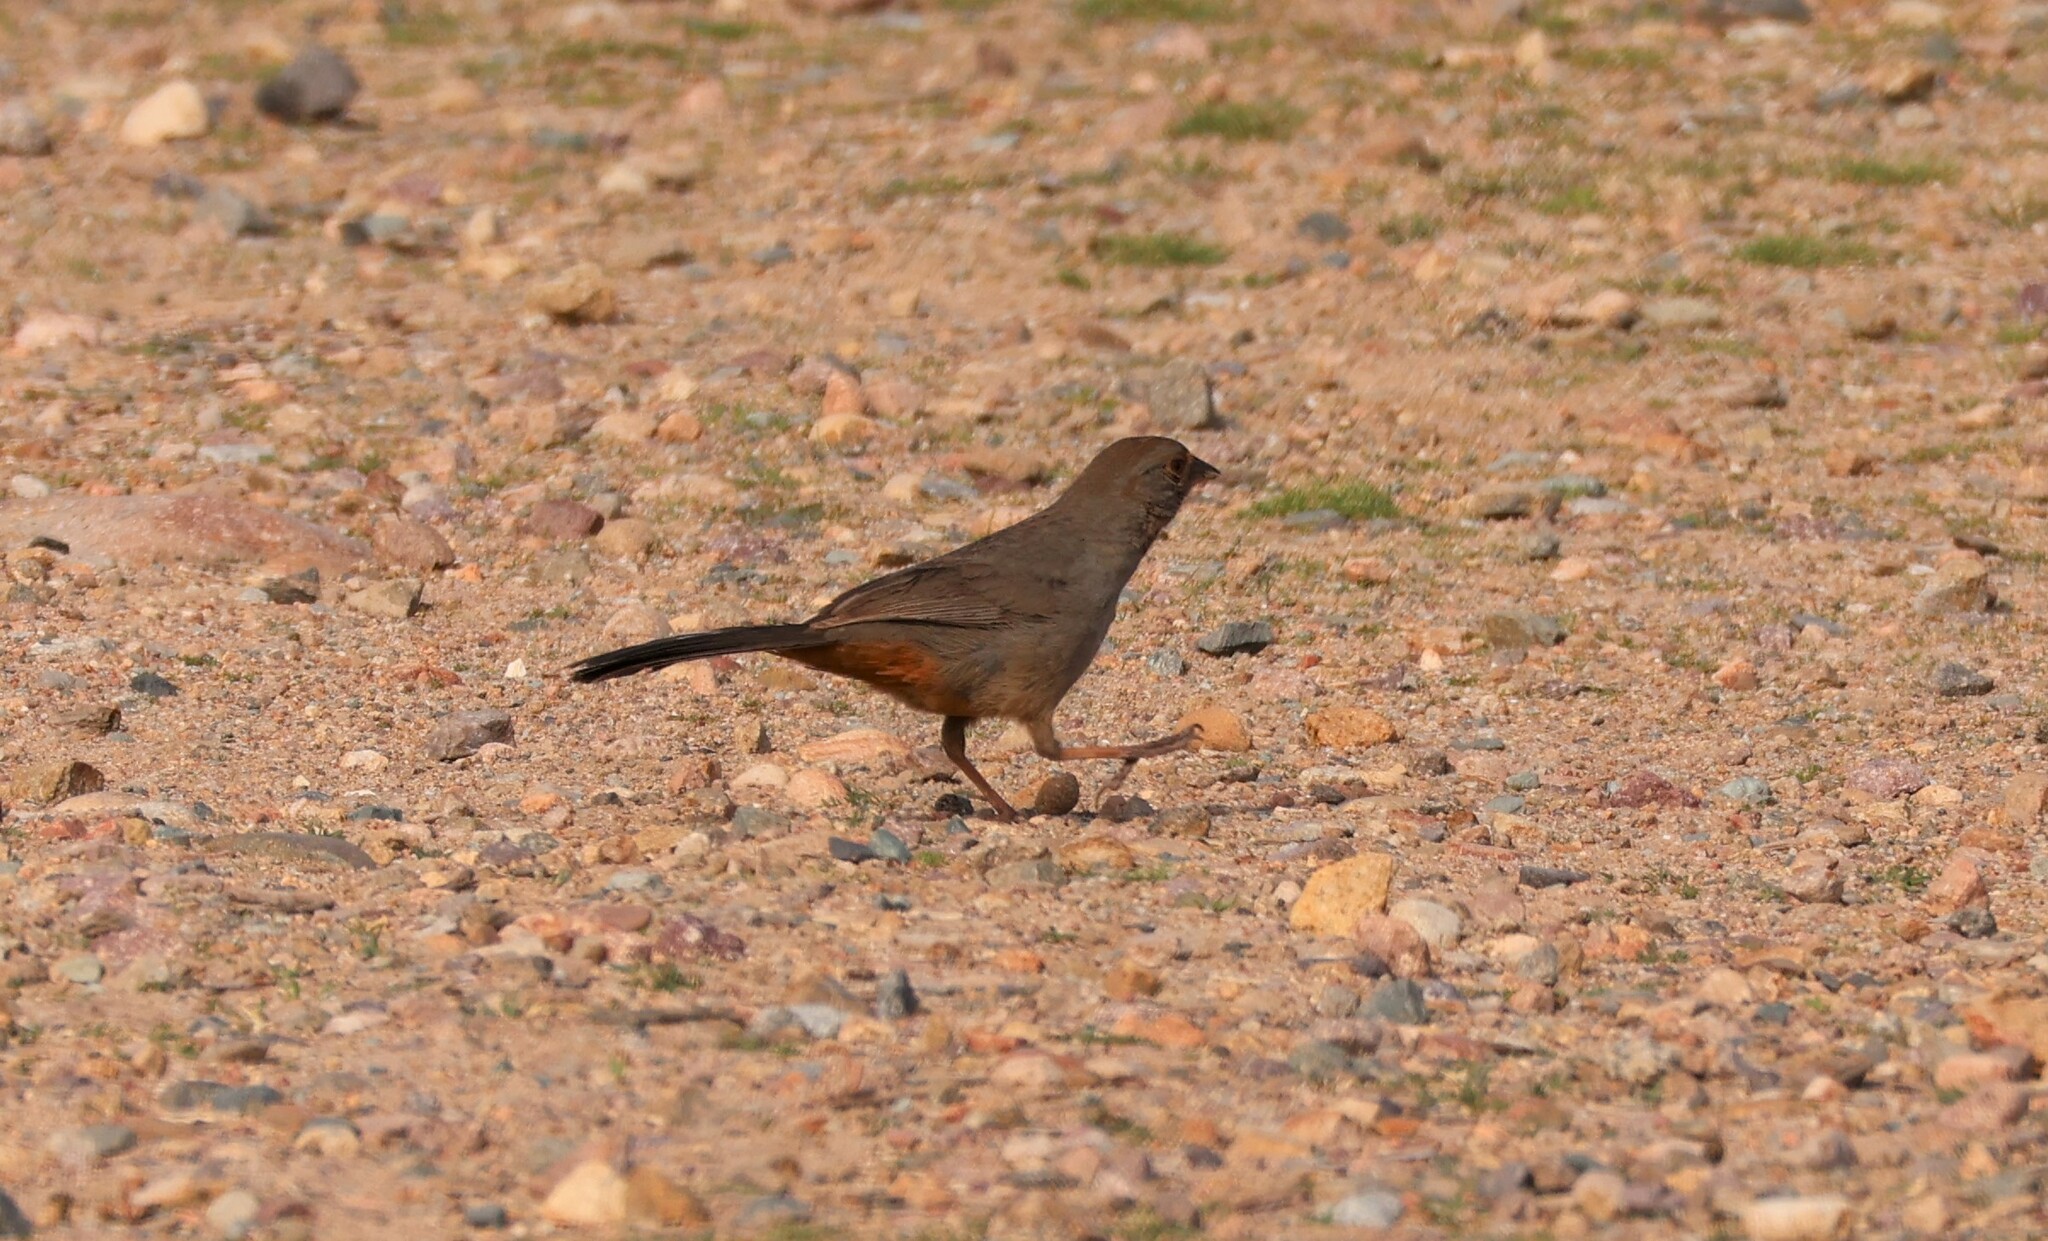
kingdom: Animalia
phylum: Chordata
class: Aves
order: Passeriformes
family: Passerellidae
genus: Melozone
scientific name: Melozone crissalis
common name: California towhee
